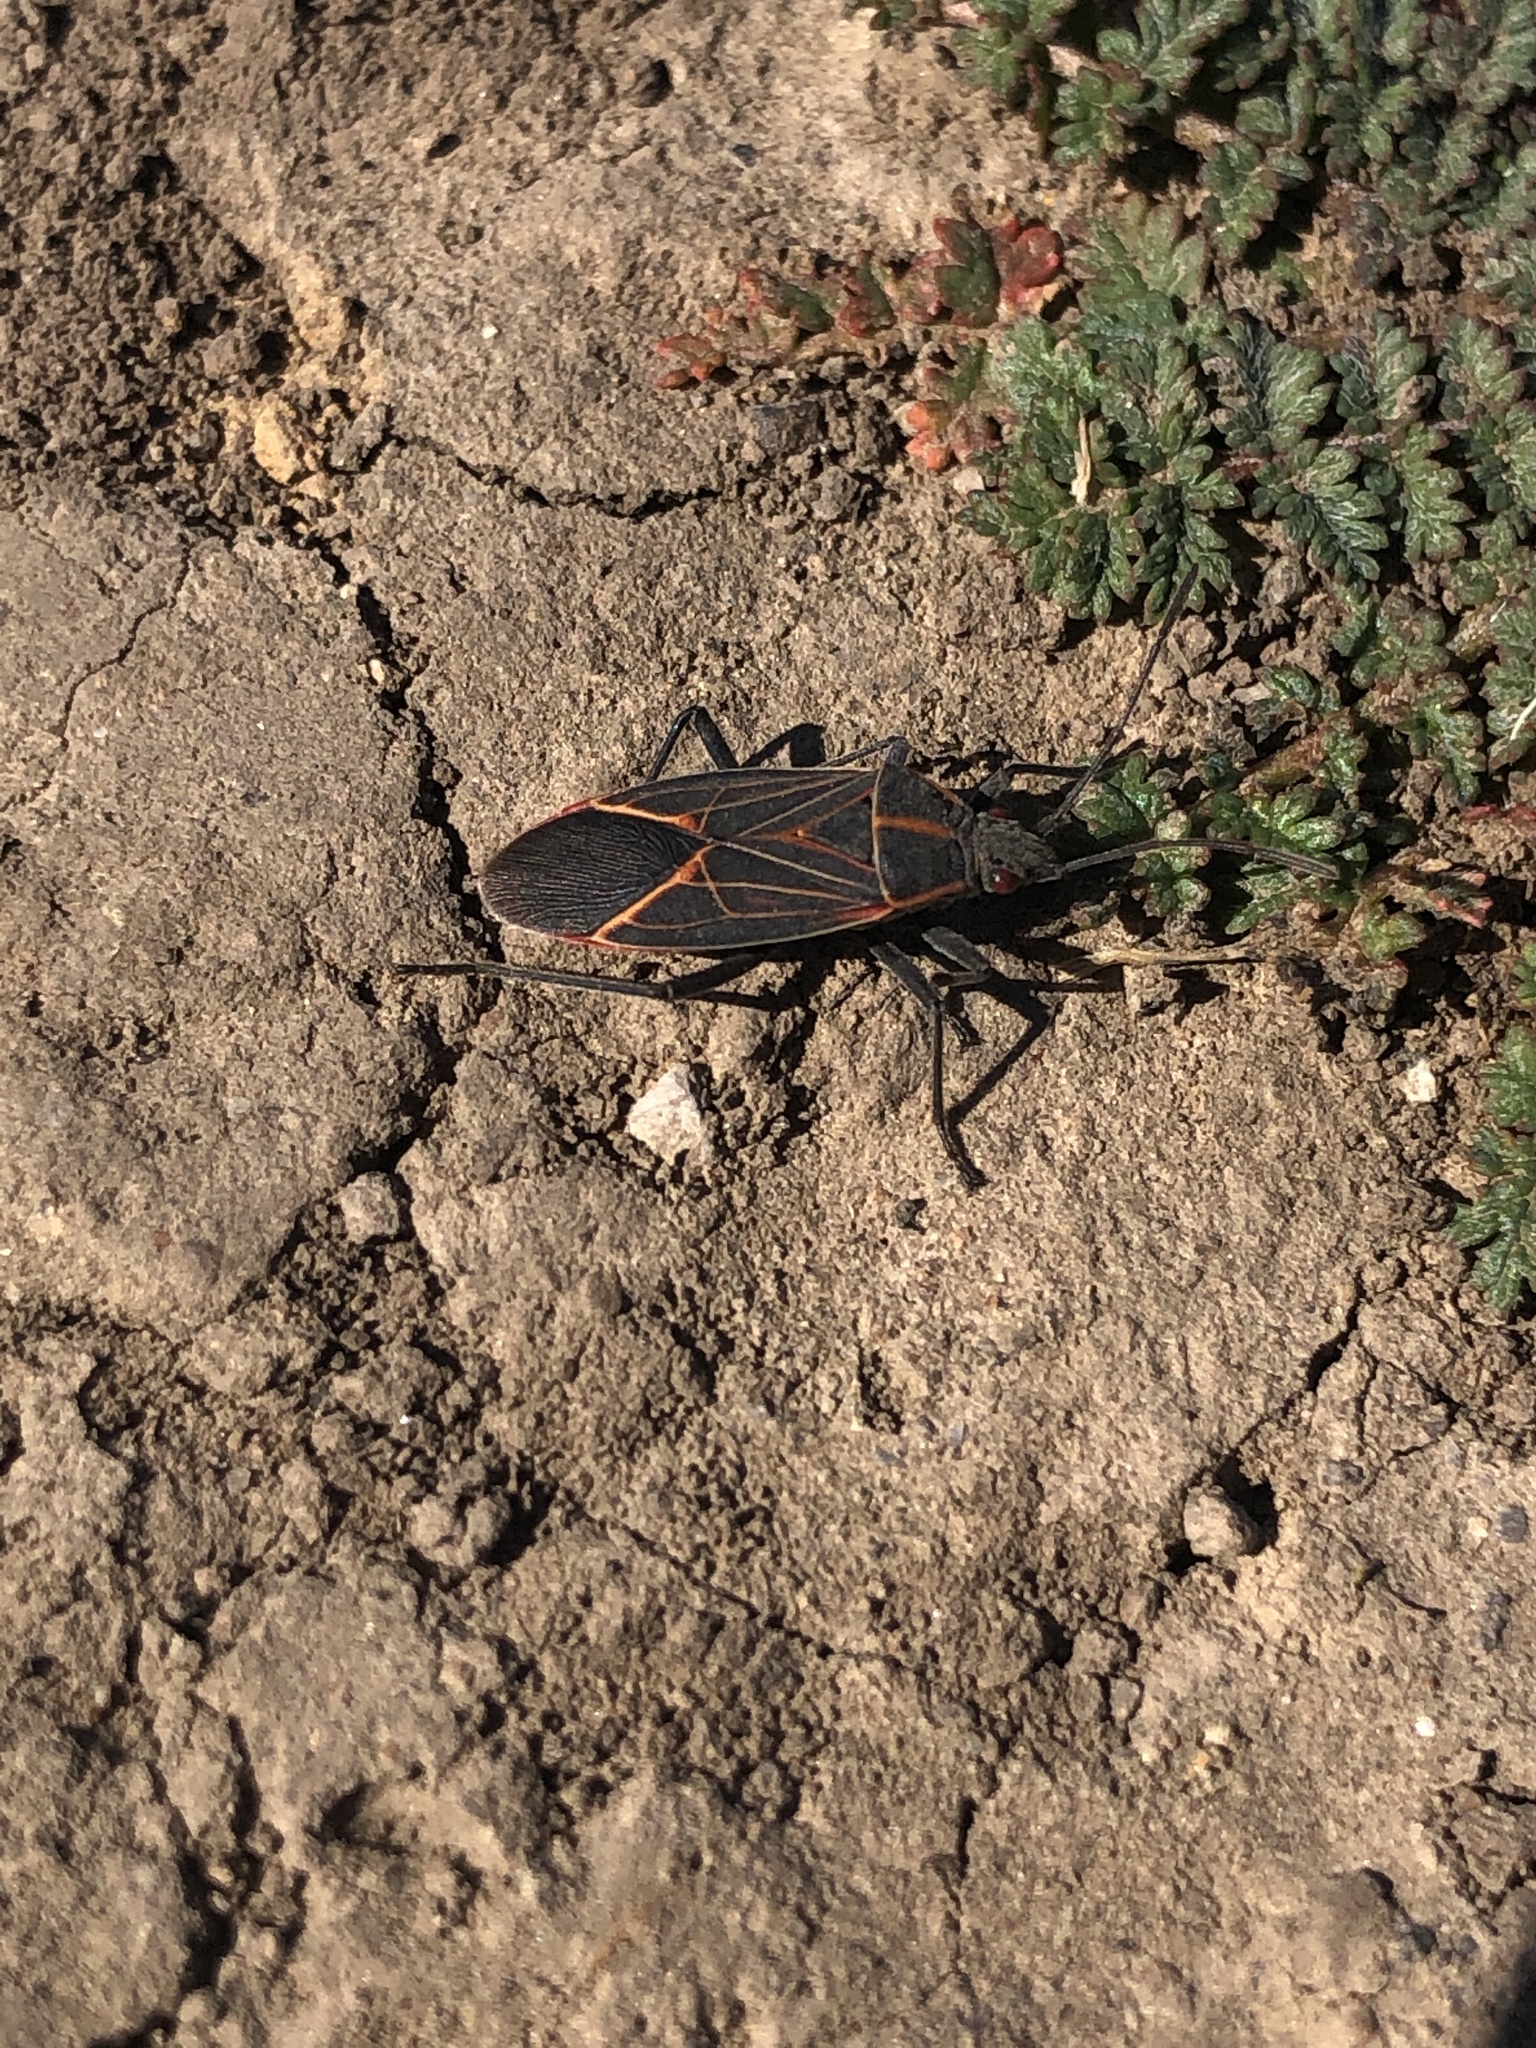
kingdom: Animalia
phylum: Arthropoda
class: Insecta
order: Hemiptera
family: Rhopalidae
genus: Boisea
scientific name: Boisea rubrolineata
